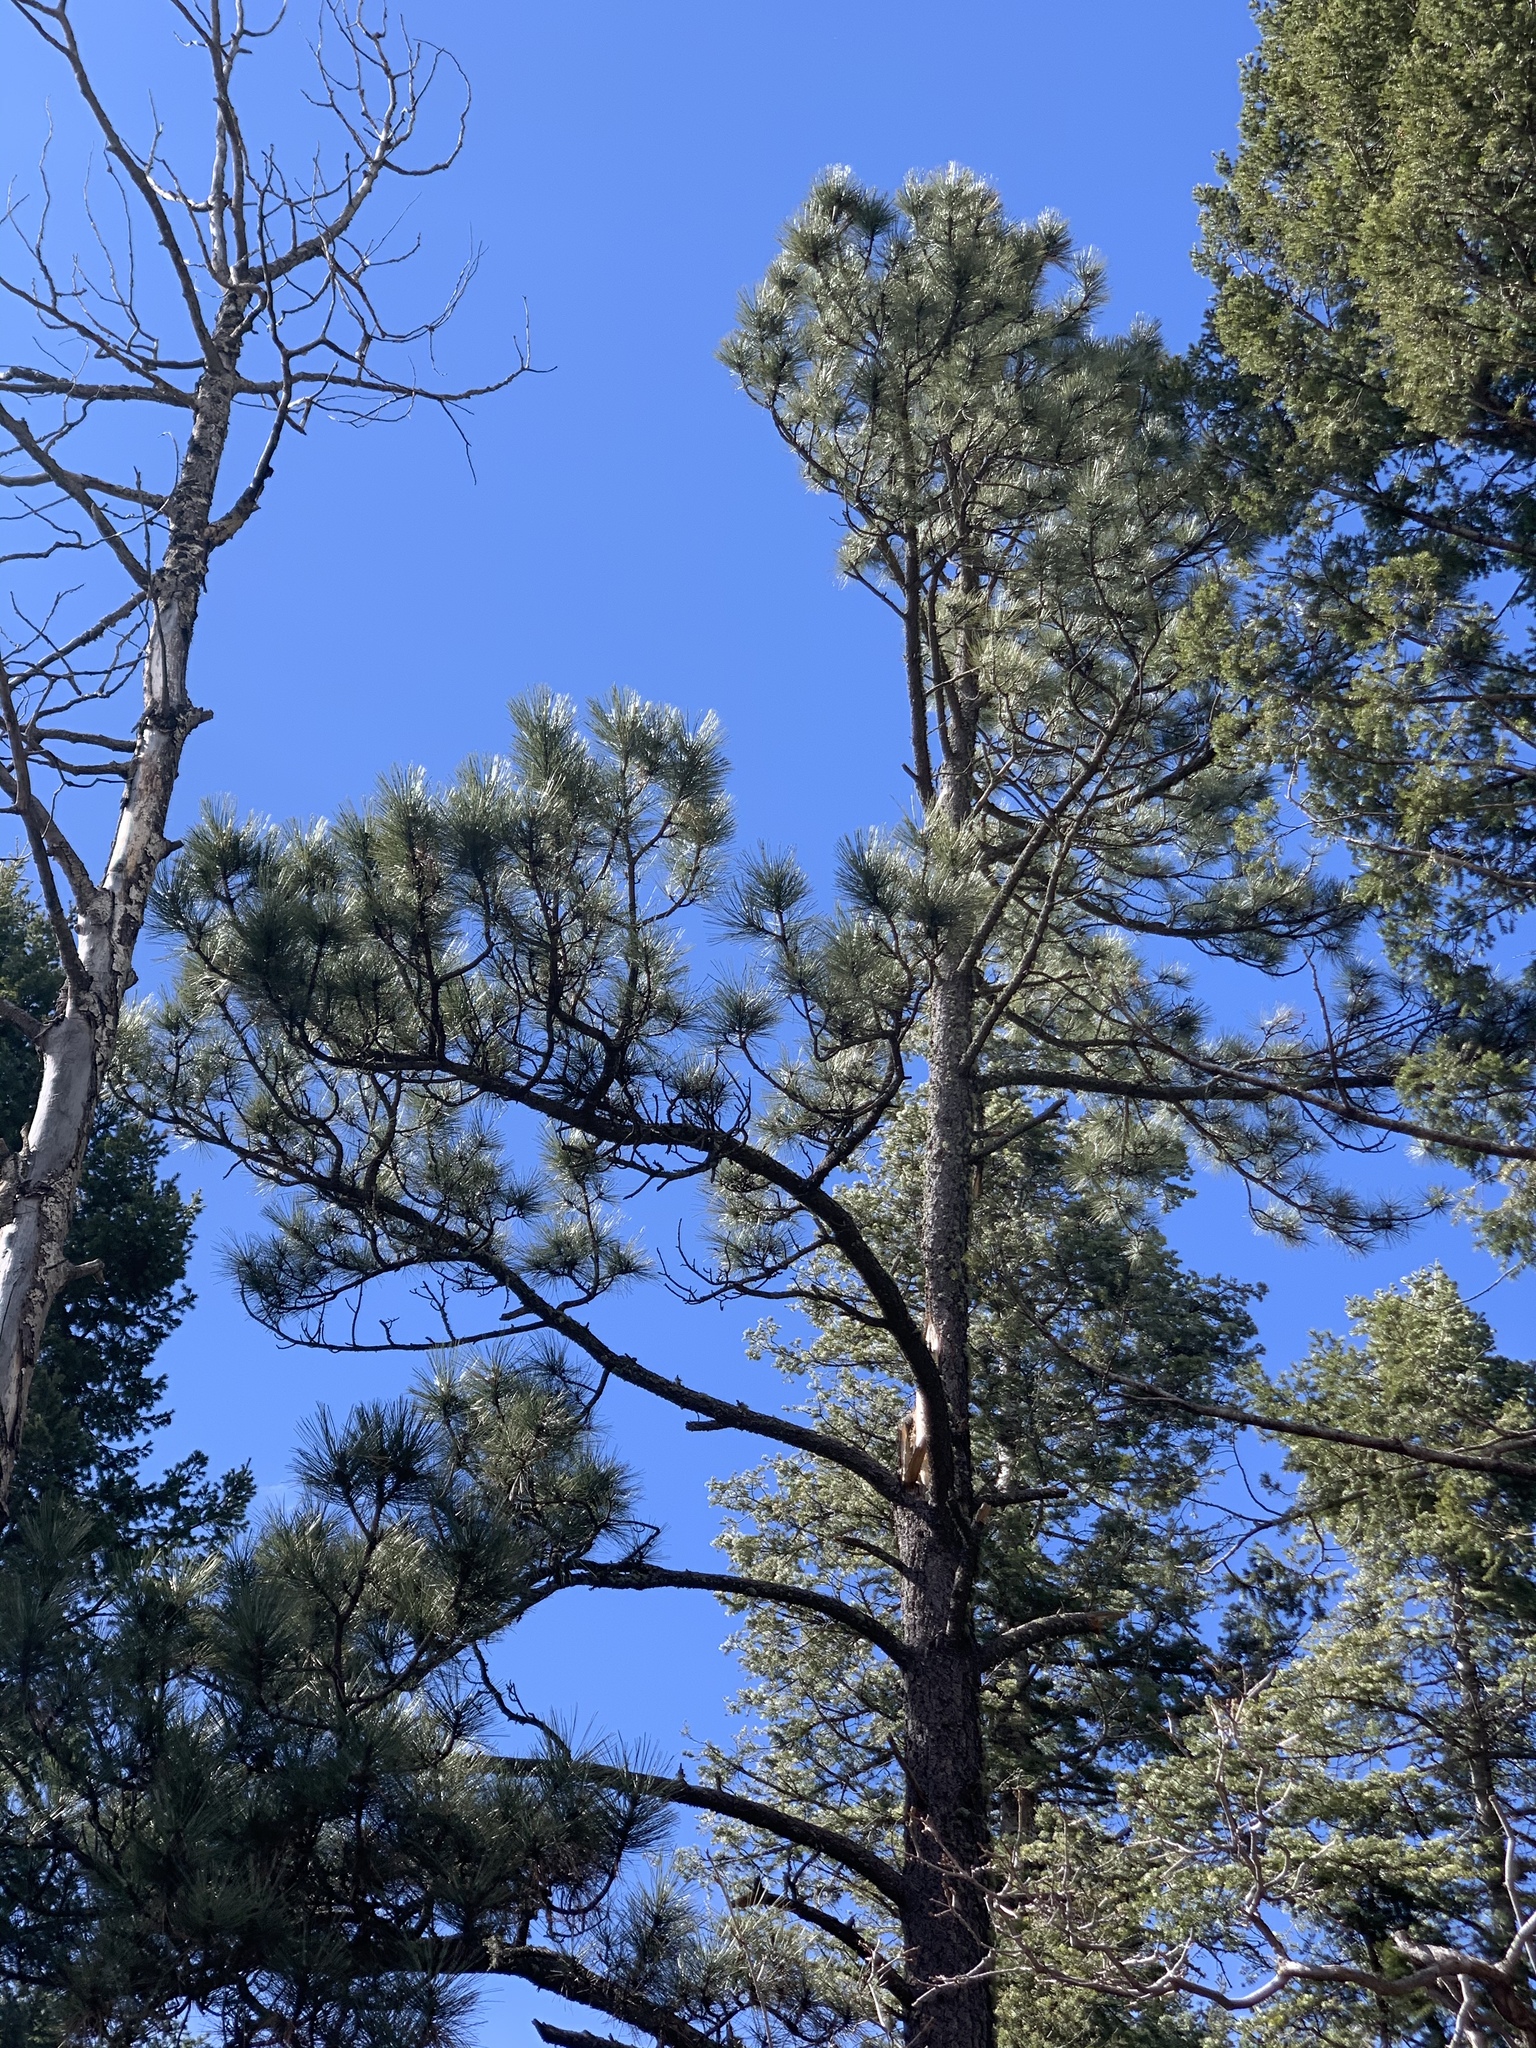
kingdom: Plantae
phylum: Tracheophyta
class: Pinopsida
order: Pinales
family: Pinaceae
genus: Pinus
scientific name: Pinus ponderosa
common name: Western yellow-pine
